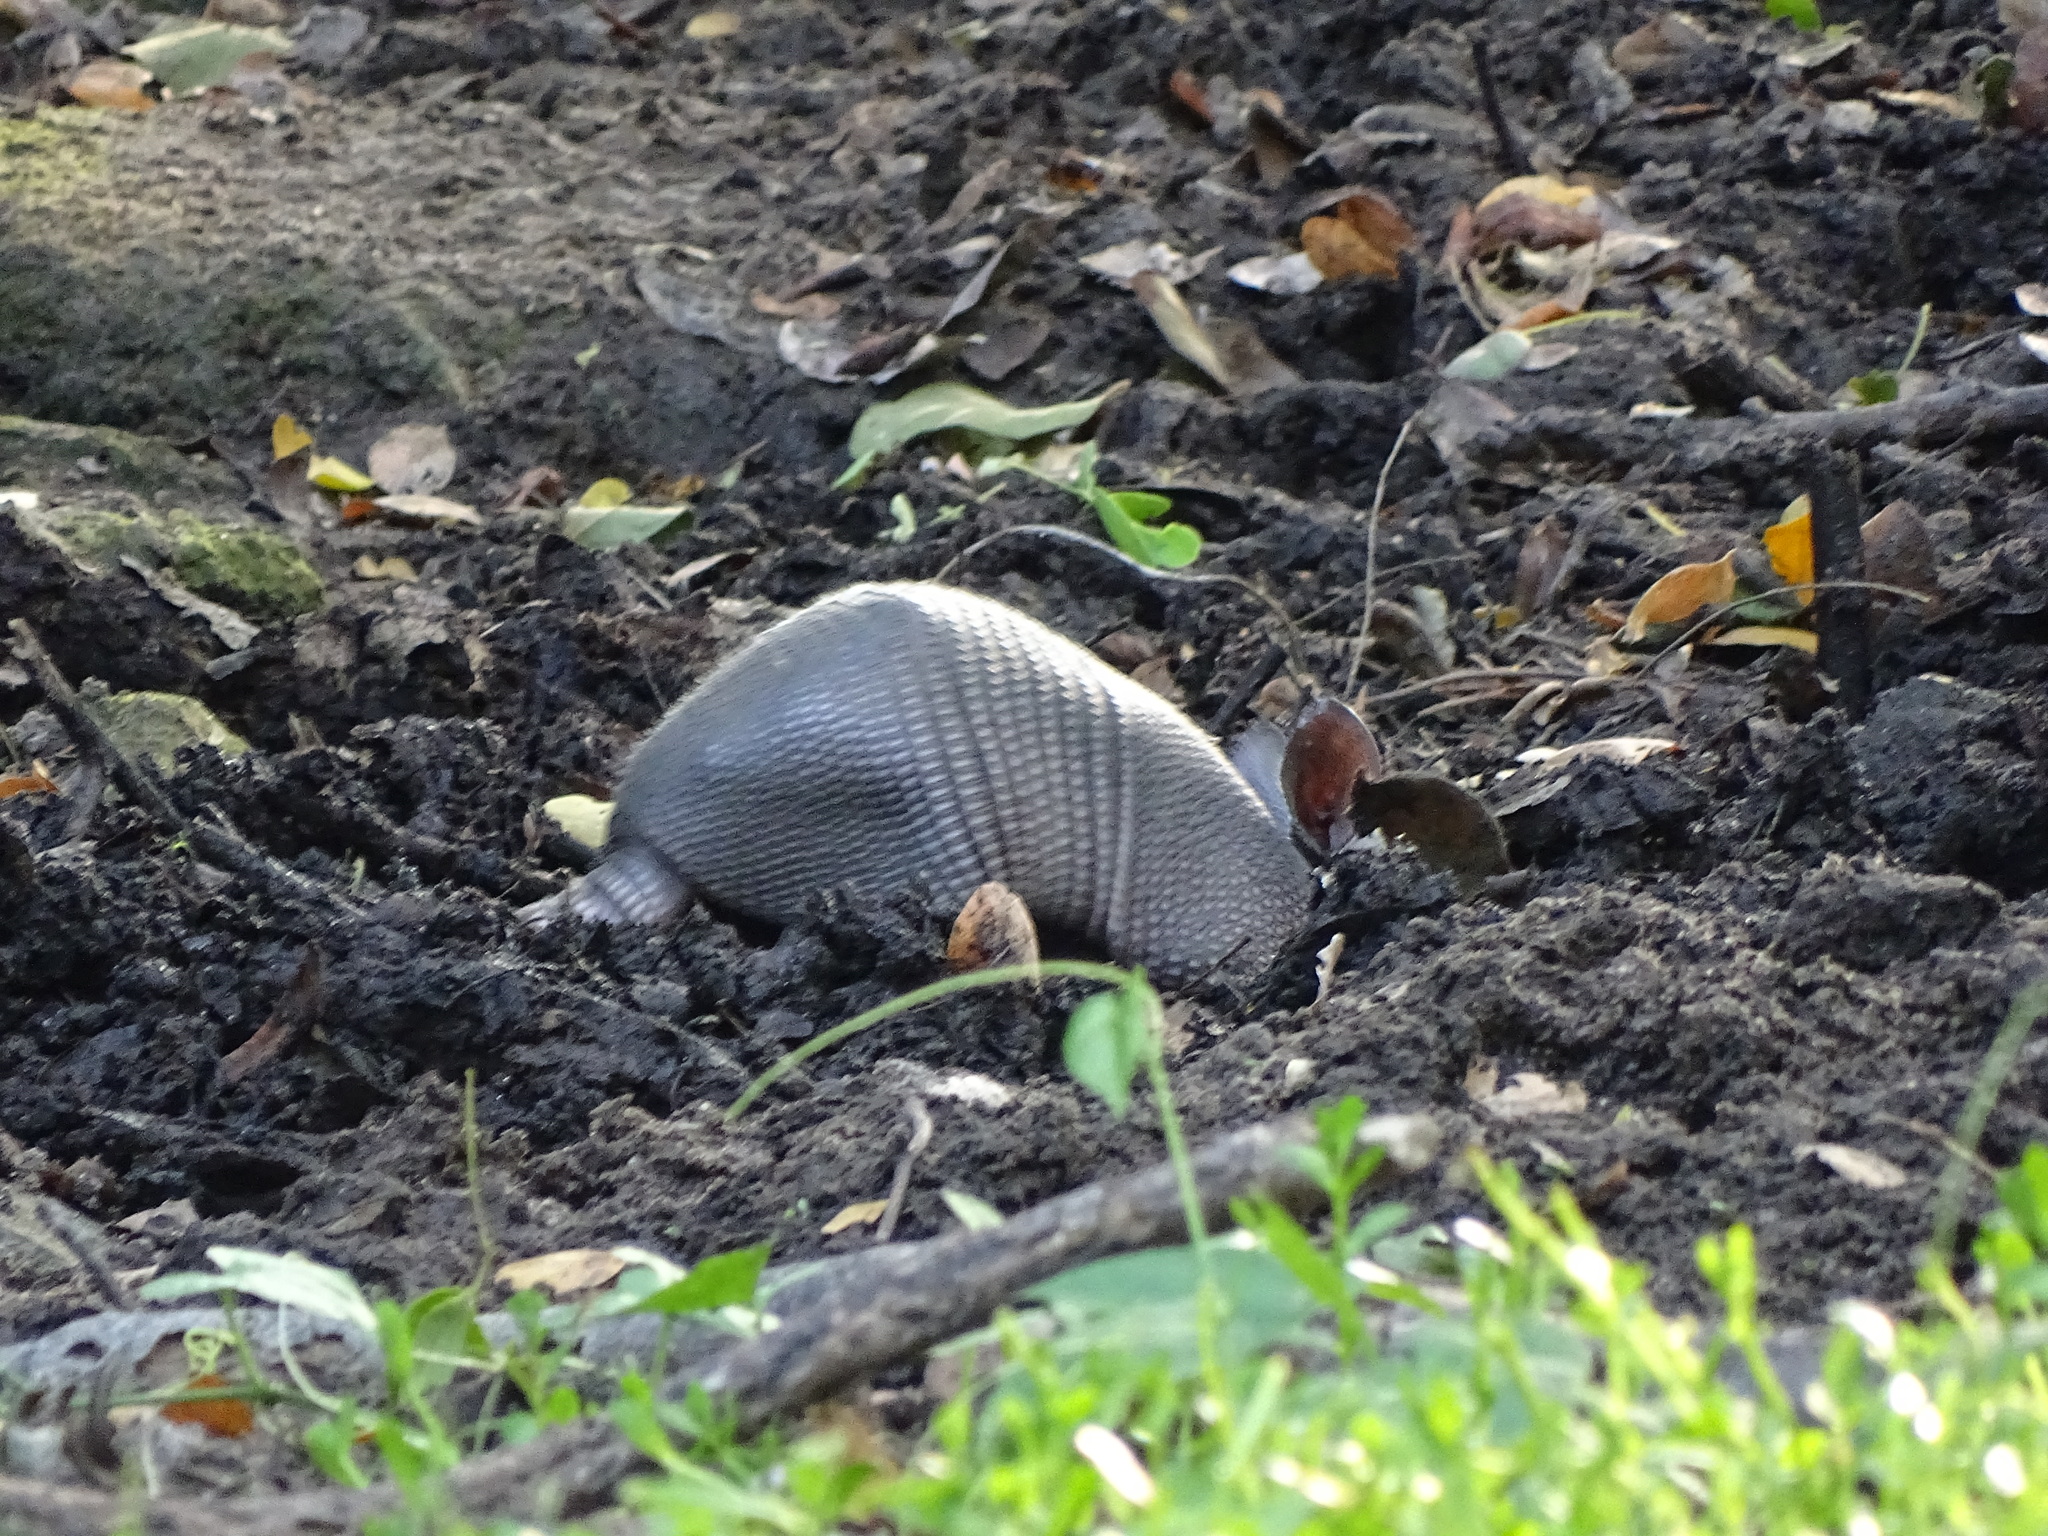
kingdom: Animalia
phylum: Chordata
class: Mammalia
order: Cingulata
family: Dasypodidae
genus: Dasypus
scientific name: Dasypus novemcinctus
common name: Nine-banded armadillo
